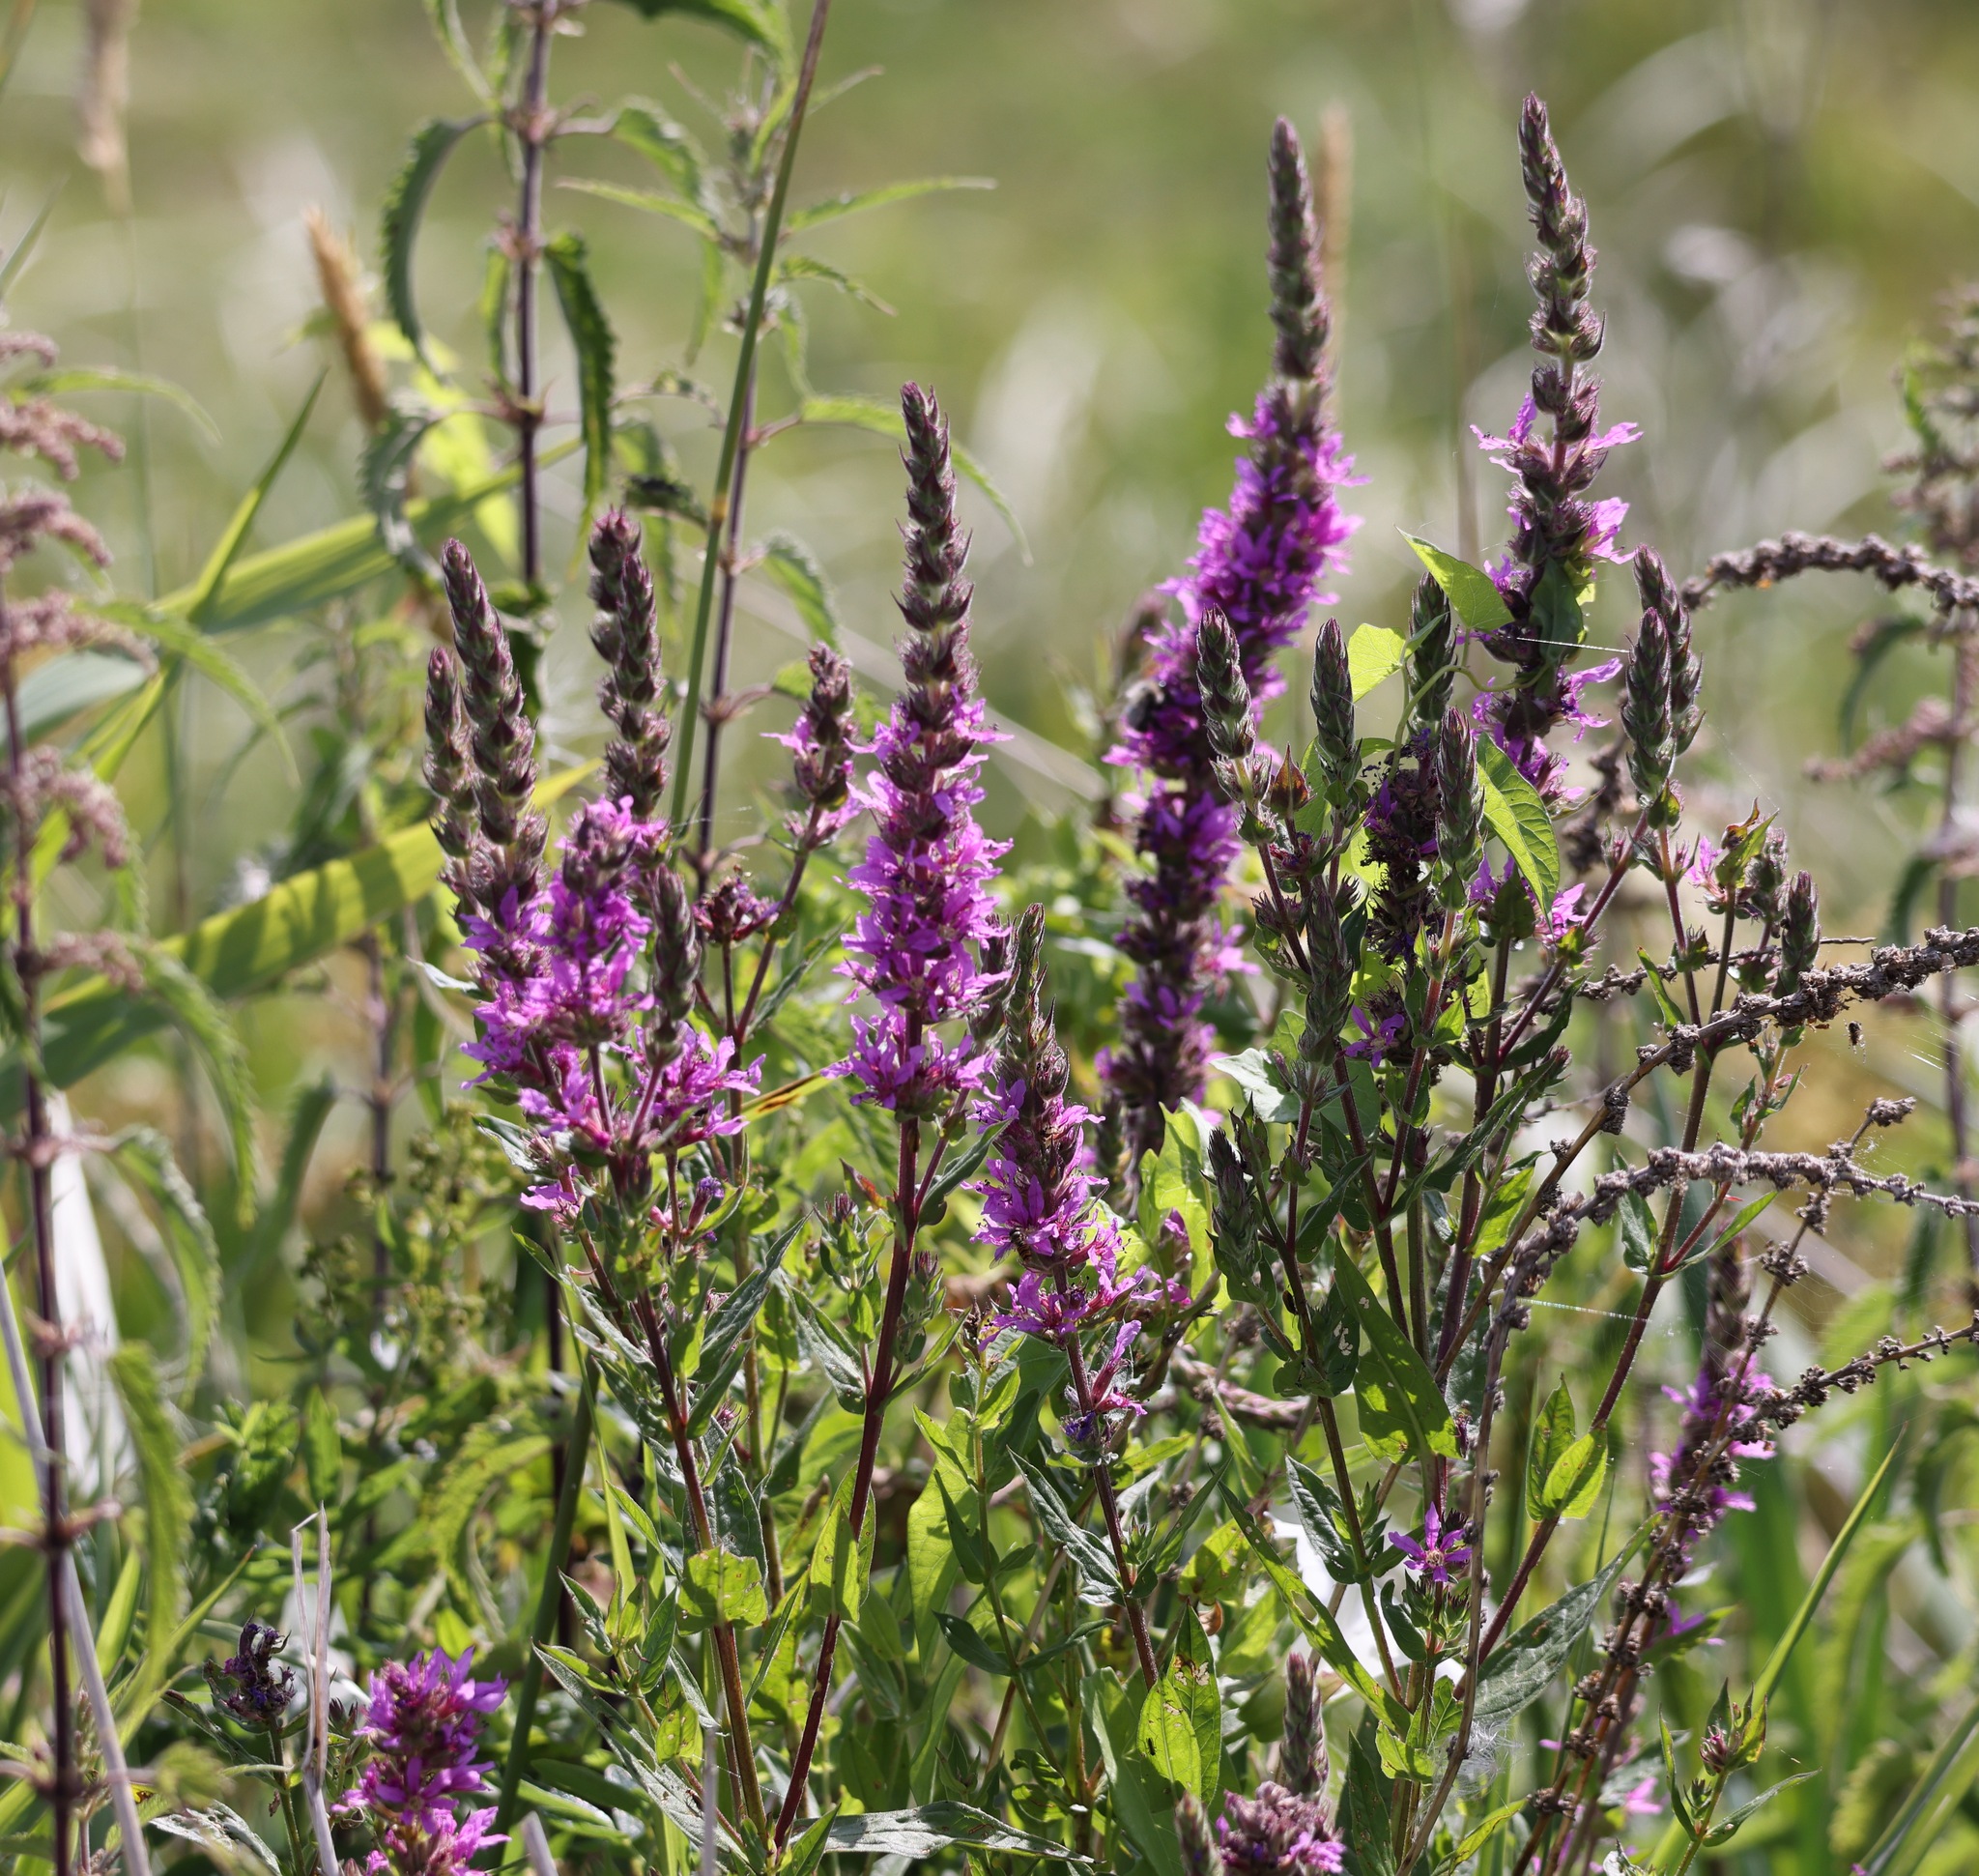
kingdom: Plantae
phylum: Tracheophyta
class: Magnoliopsida
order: Myrtales
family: Lythraceae
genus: Lythrum
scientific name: Lythrum salicaria
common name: Purple loosestrife
